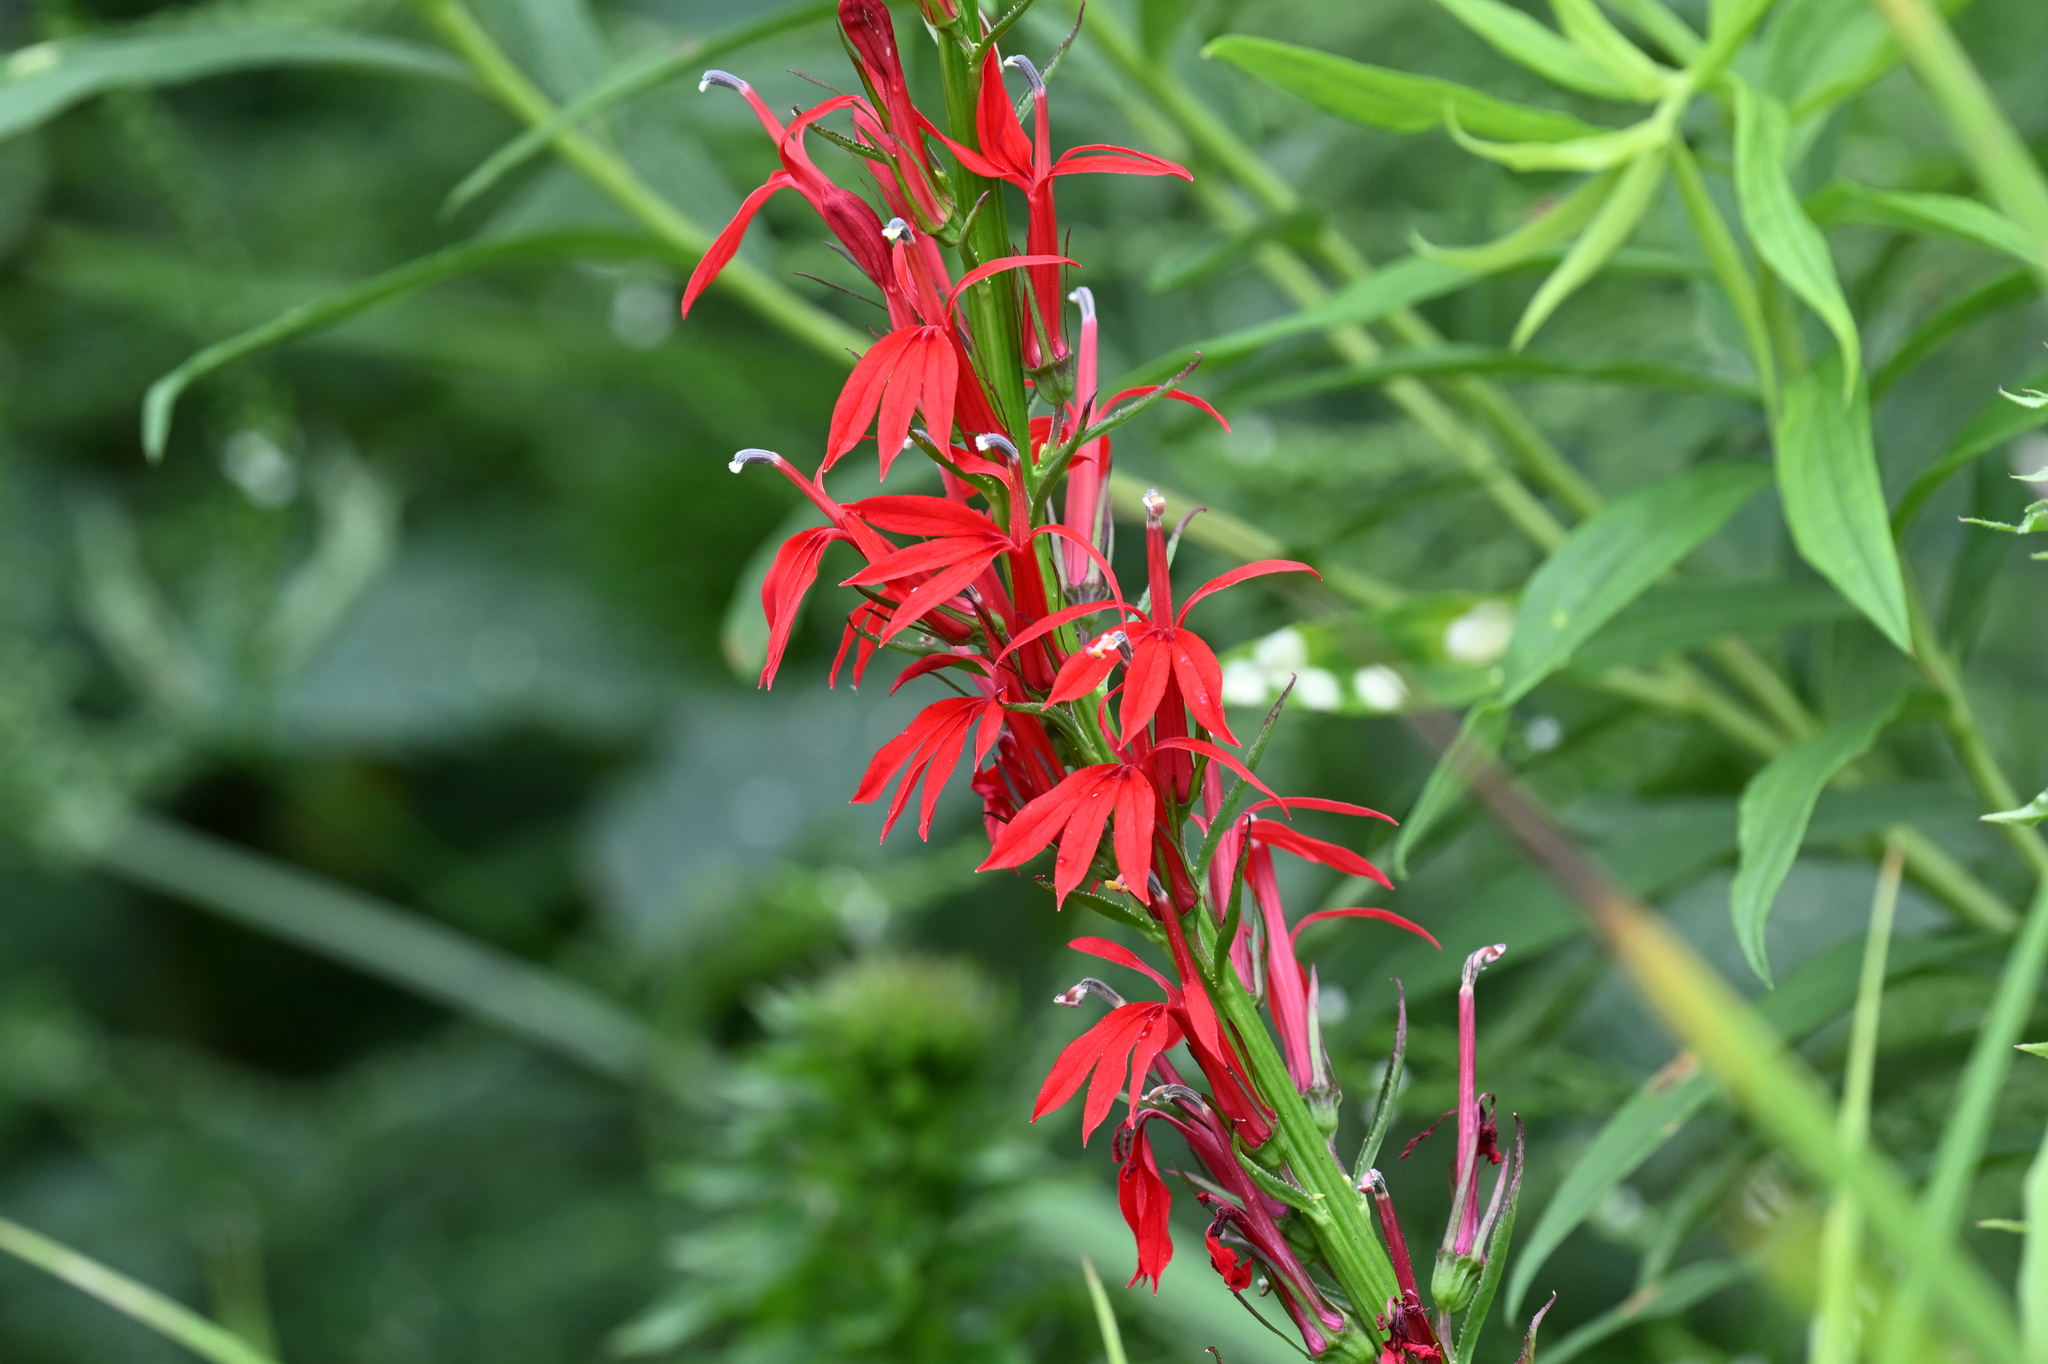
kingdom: Plantae
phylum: Tracheophyta
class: Magnoliopsida
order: Asterales
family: Campanulaceae
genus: Lobelia
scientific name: Lobelia cardinalis
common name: Cardinal flower
